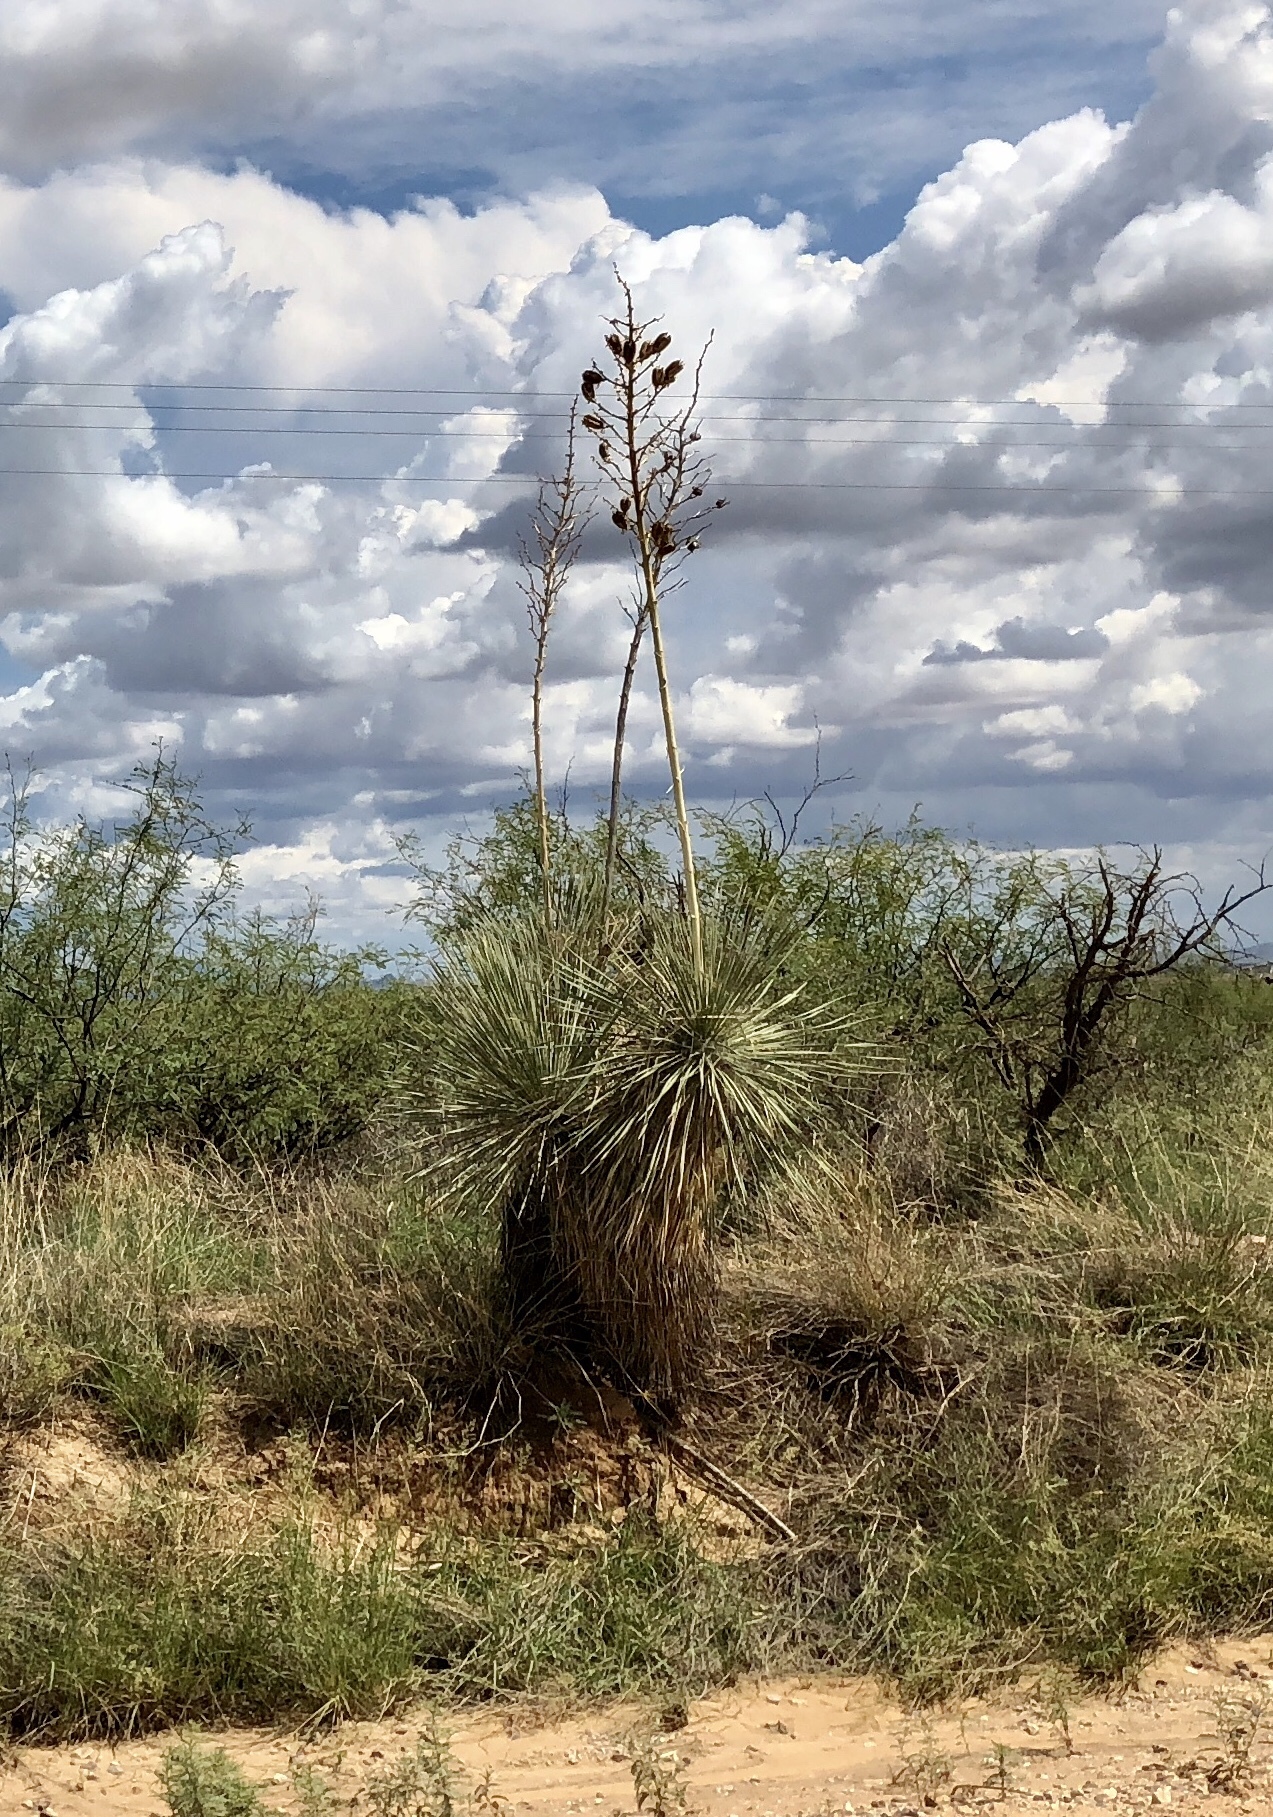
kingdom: Plantae
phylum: Tracheophyta
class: Liliopsida
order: Asparagales
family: Asparagaceae
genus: Yucca
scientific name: Yucca elata
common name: Palmella
